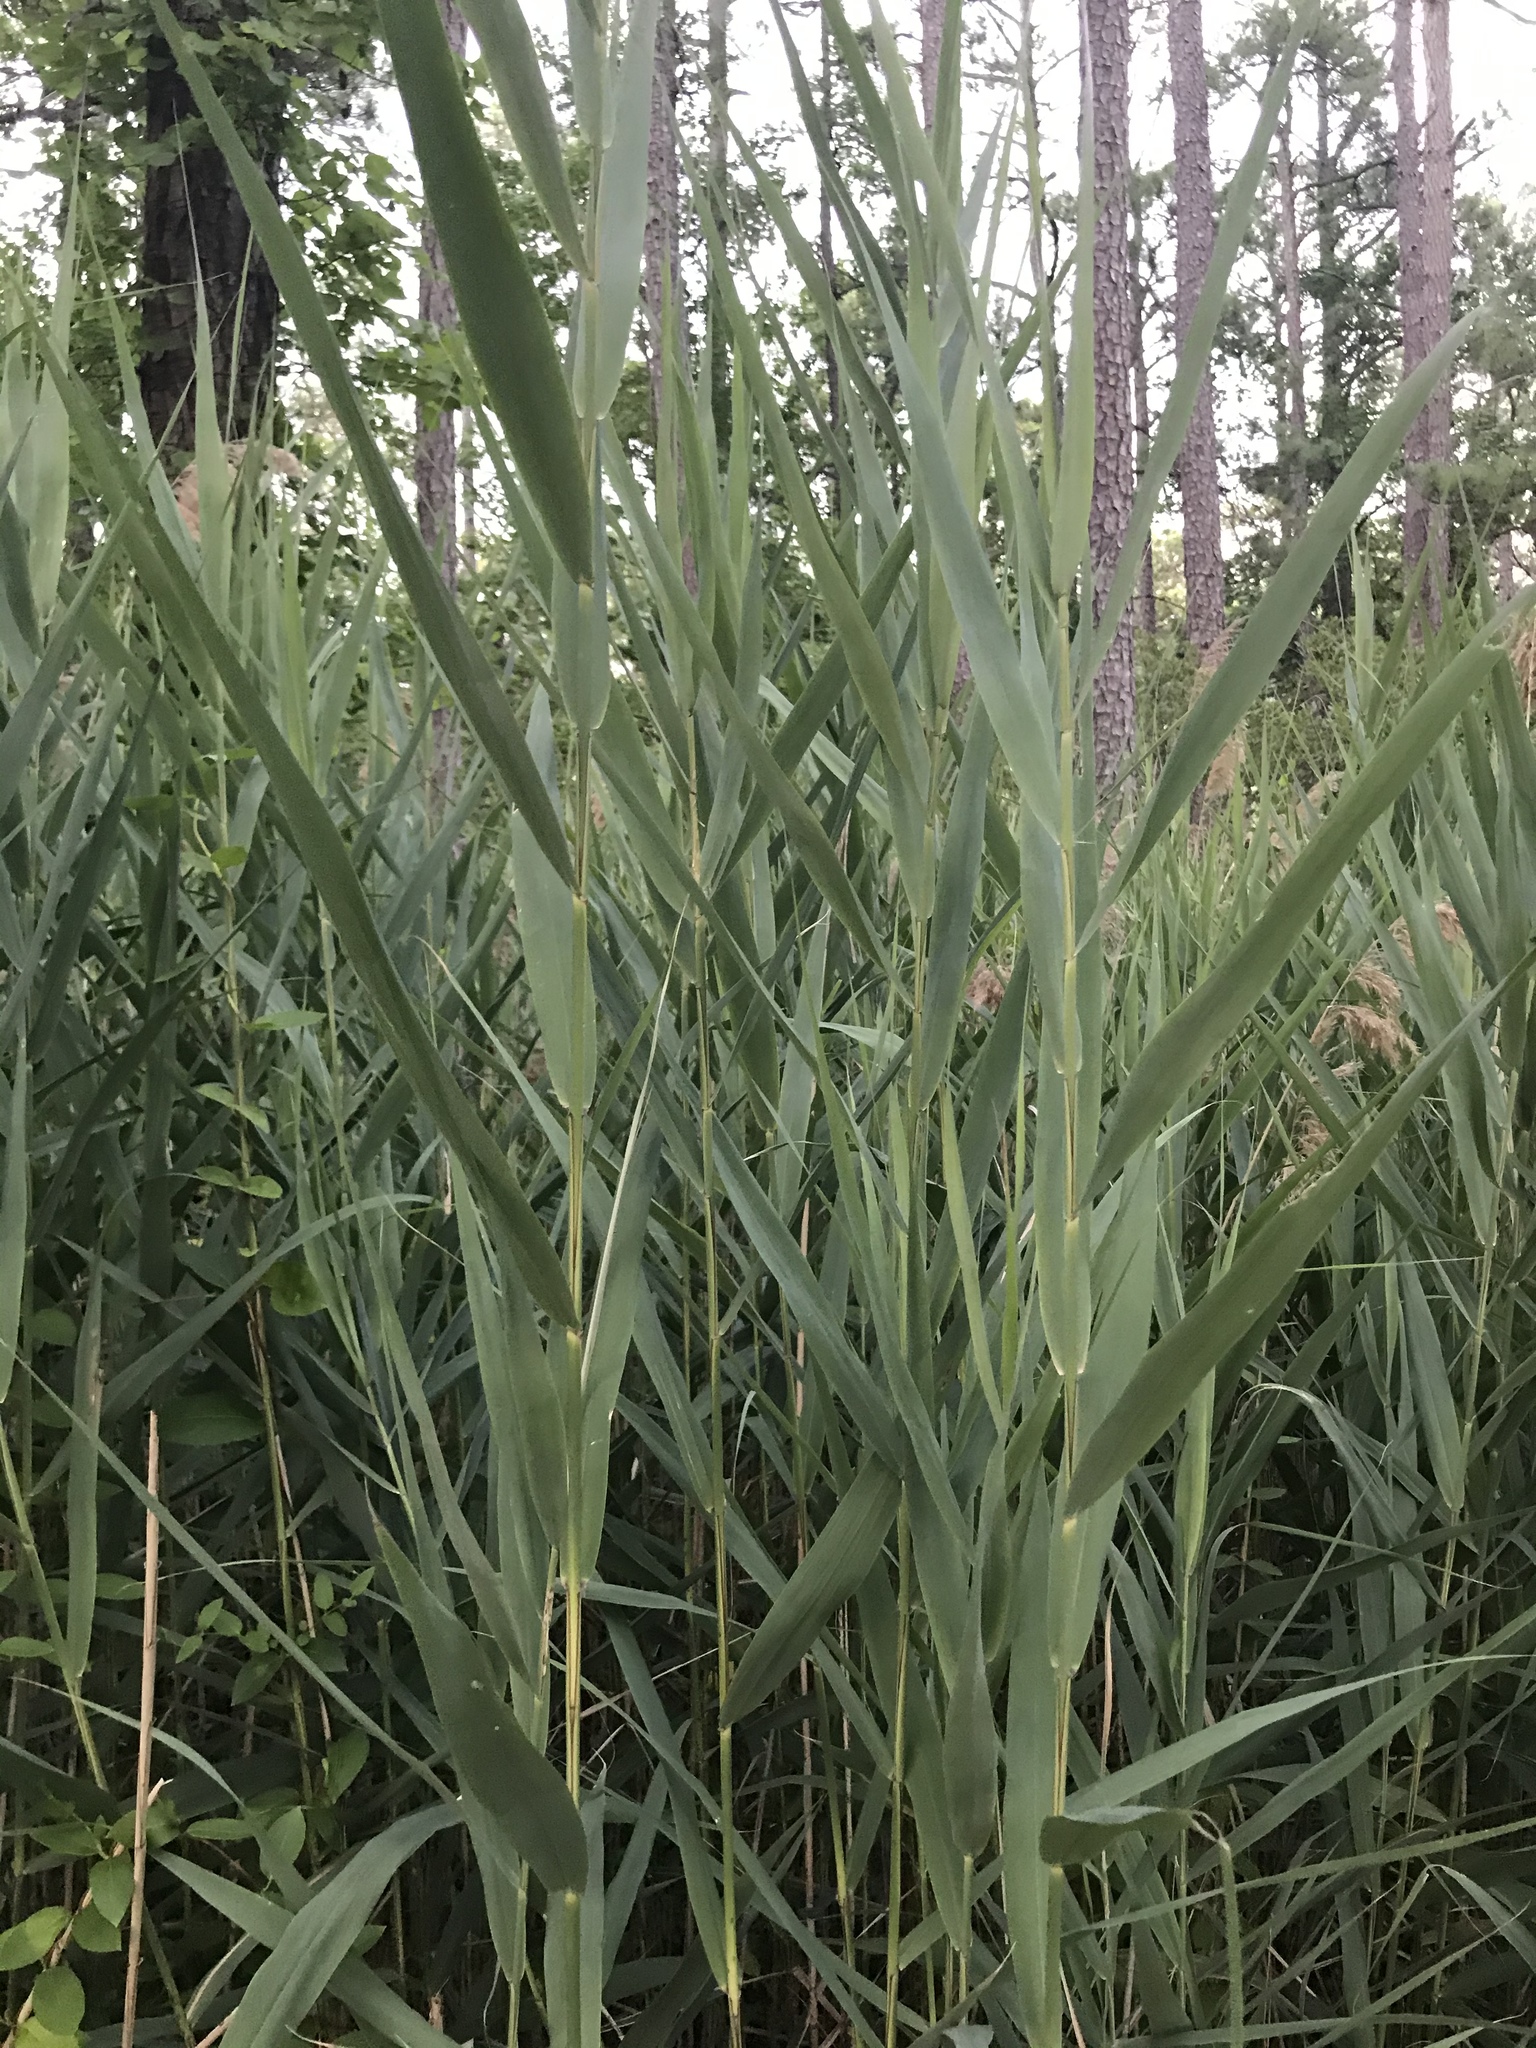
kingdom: Plantae
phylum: Tracheophyta
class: Liliopsida
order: Poales
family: Poaceae
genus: Phragmites
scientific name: Phragmites australis
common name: Common reed
